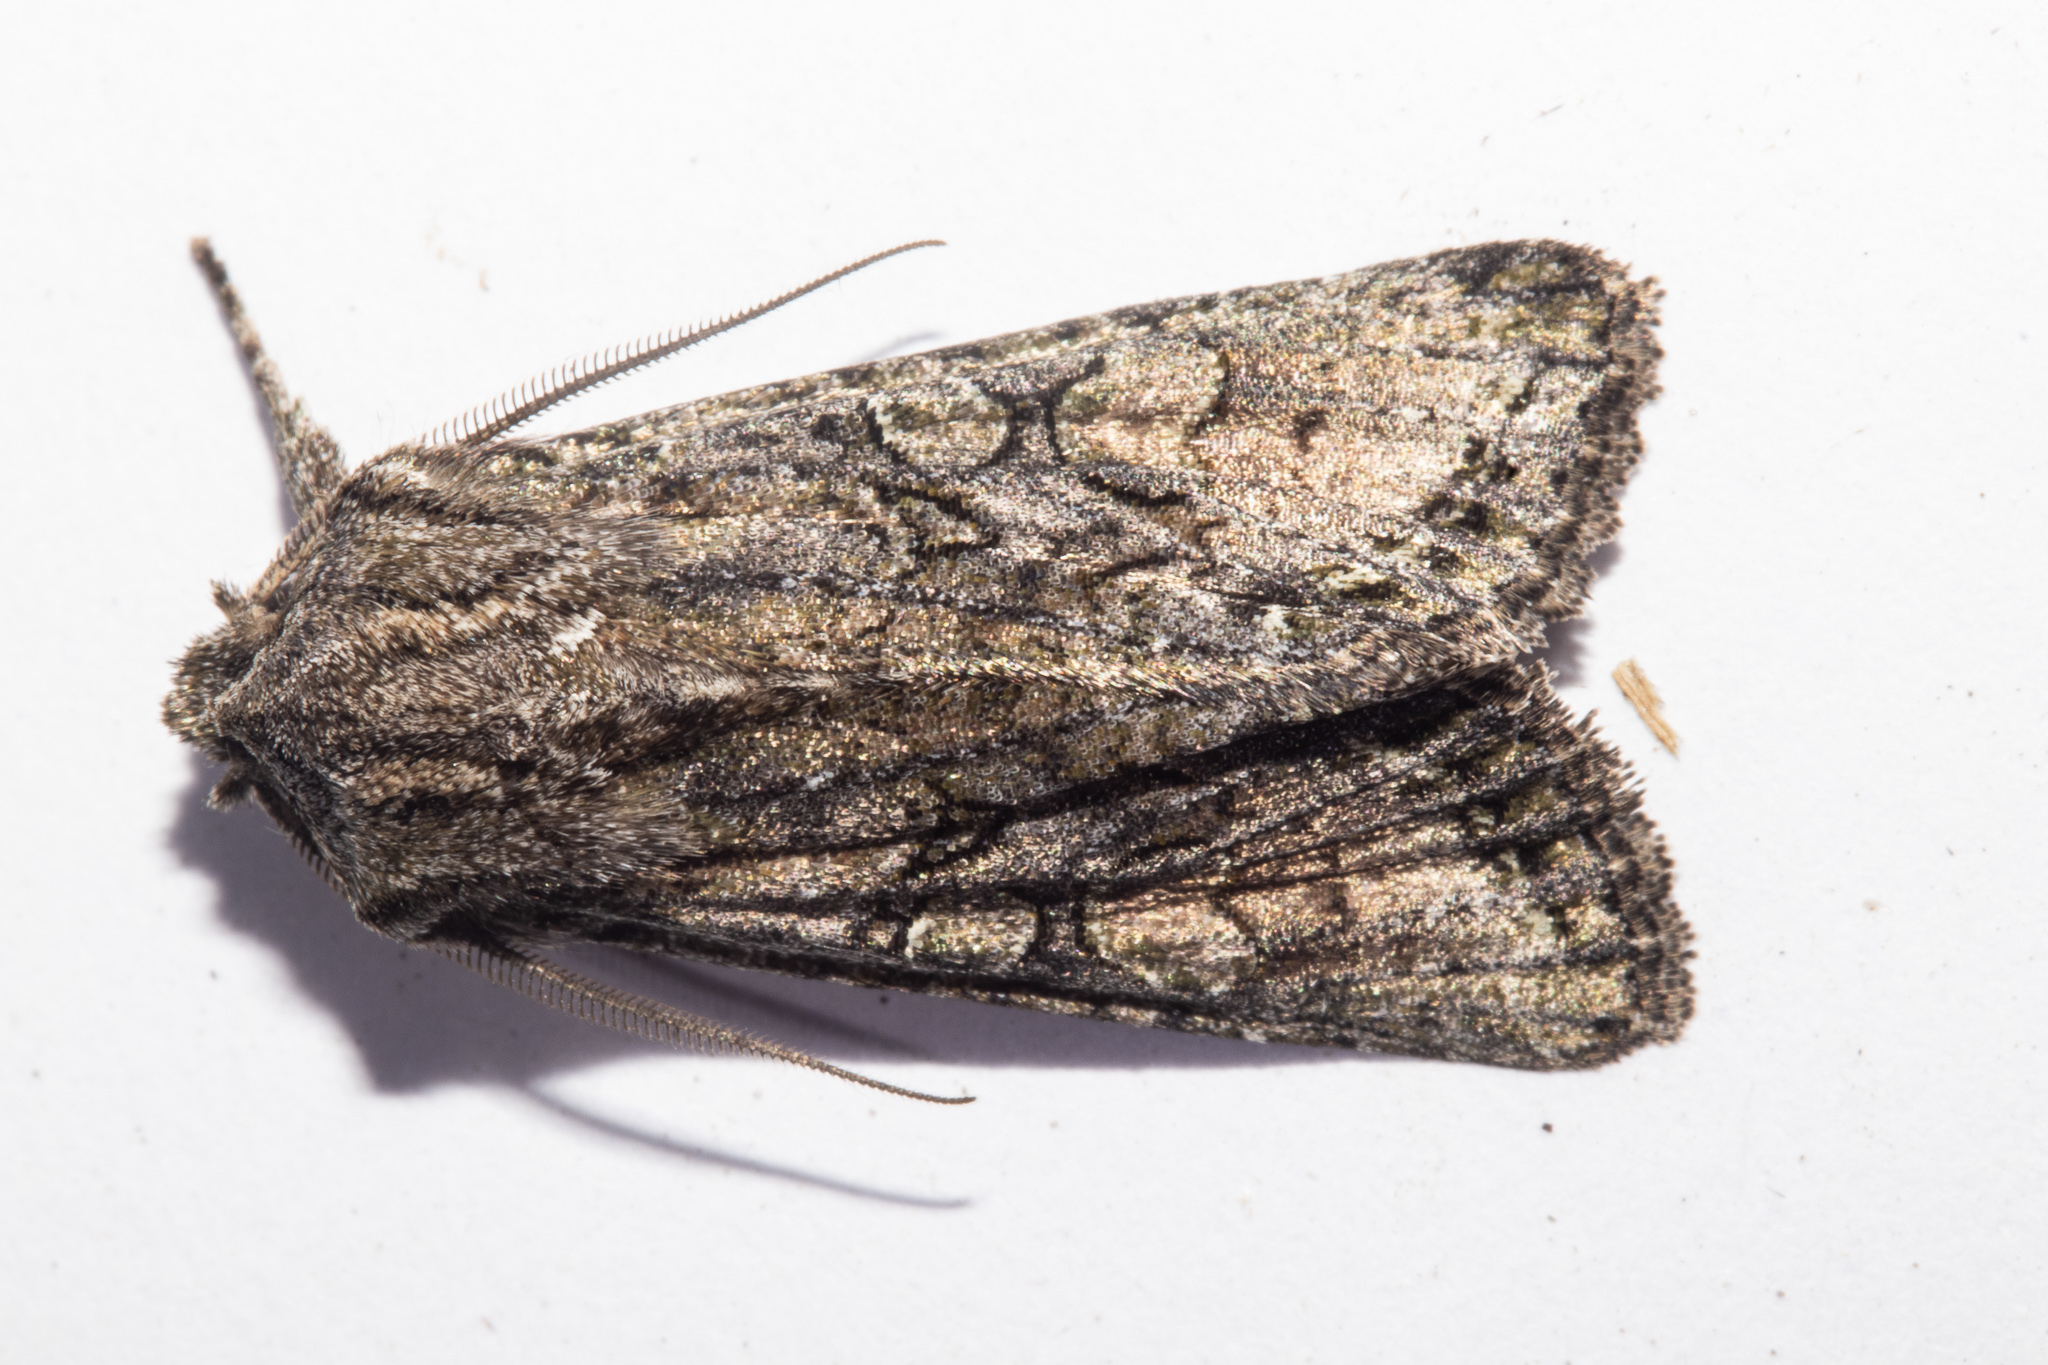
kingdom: Animalia
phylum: Arthropoda
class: Insecta
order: Lepidoptera
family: Noctuidae
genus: Ichneutica
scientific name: Ichneutica mutans
